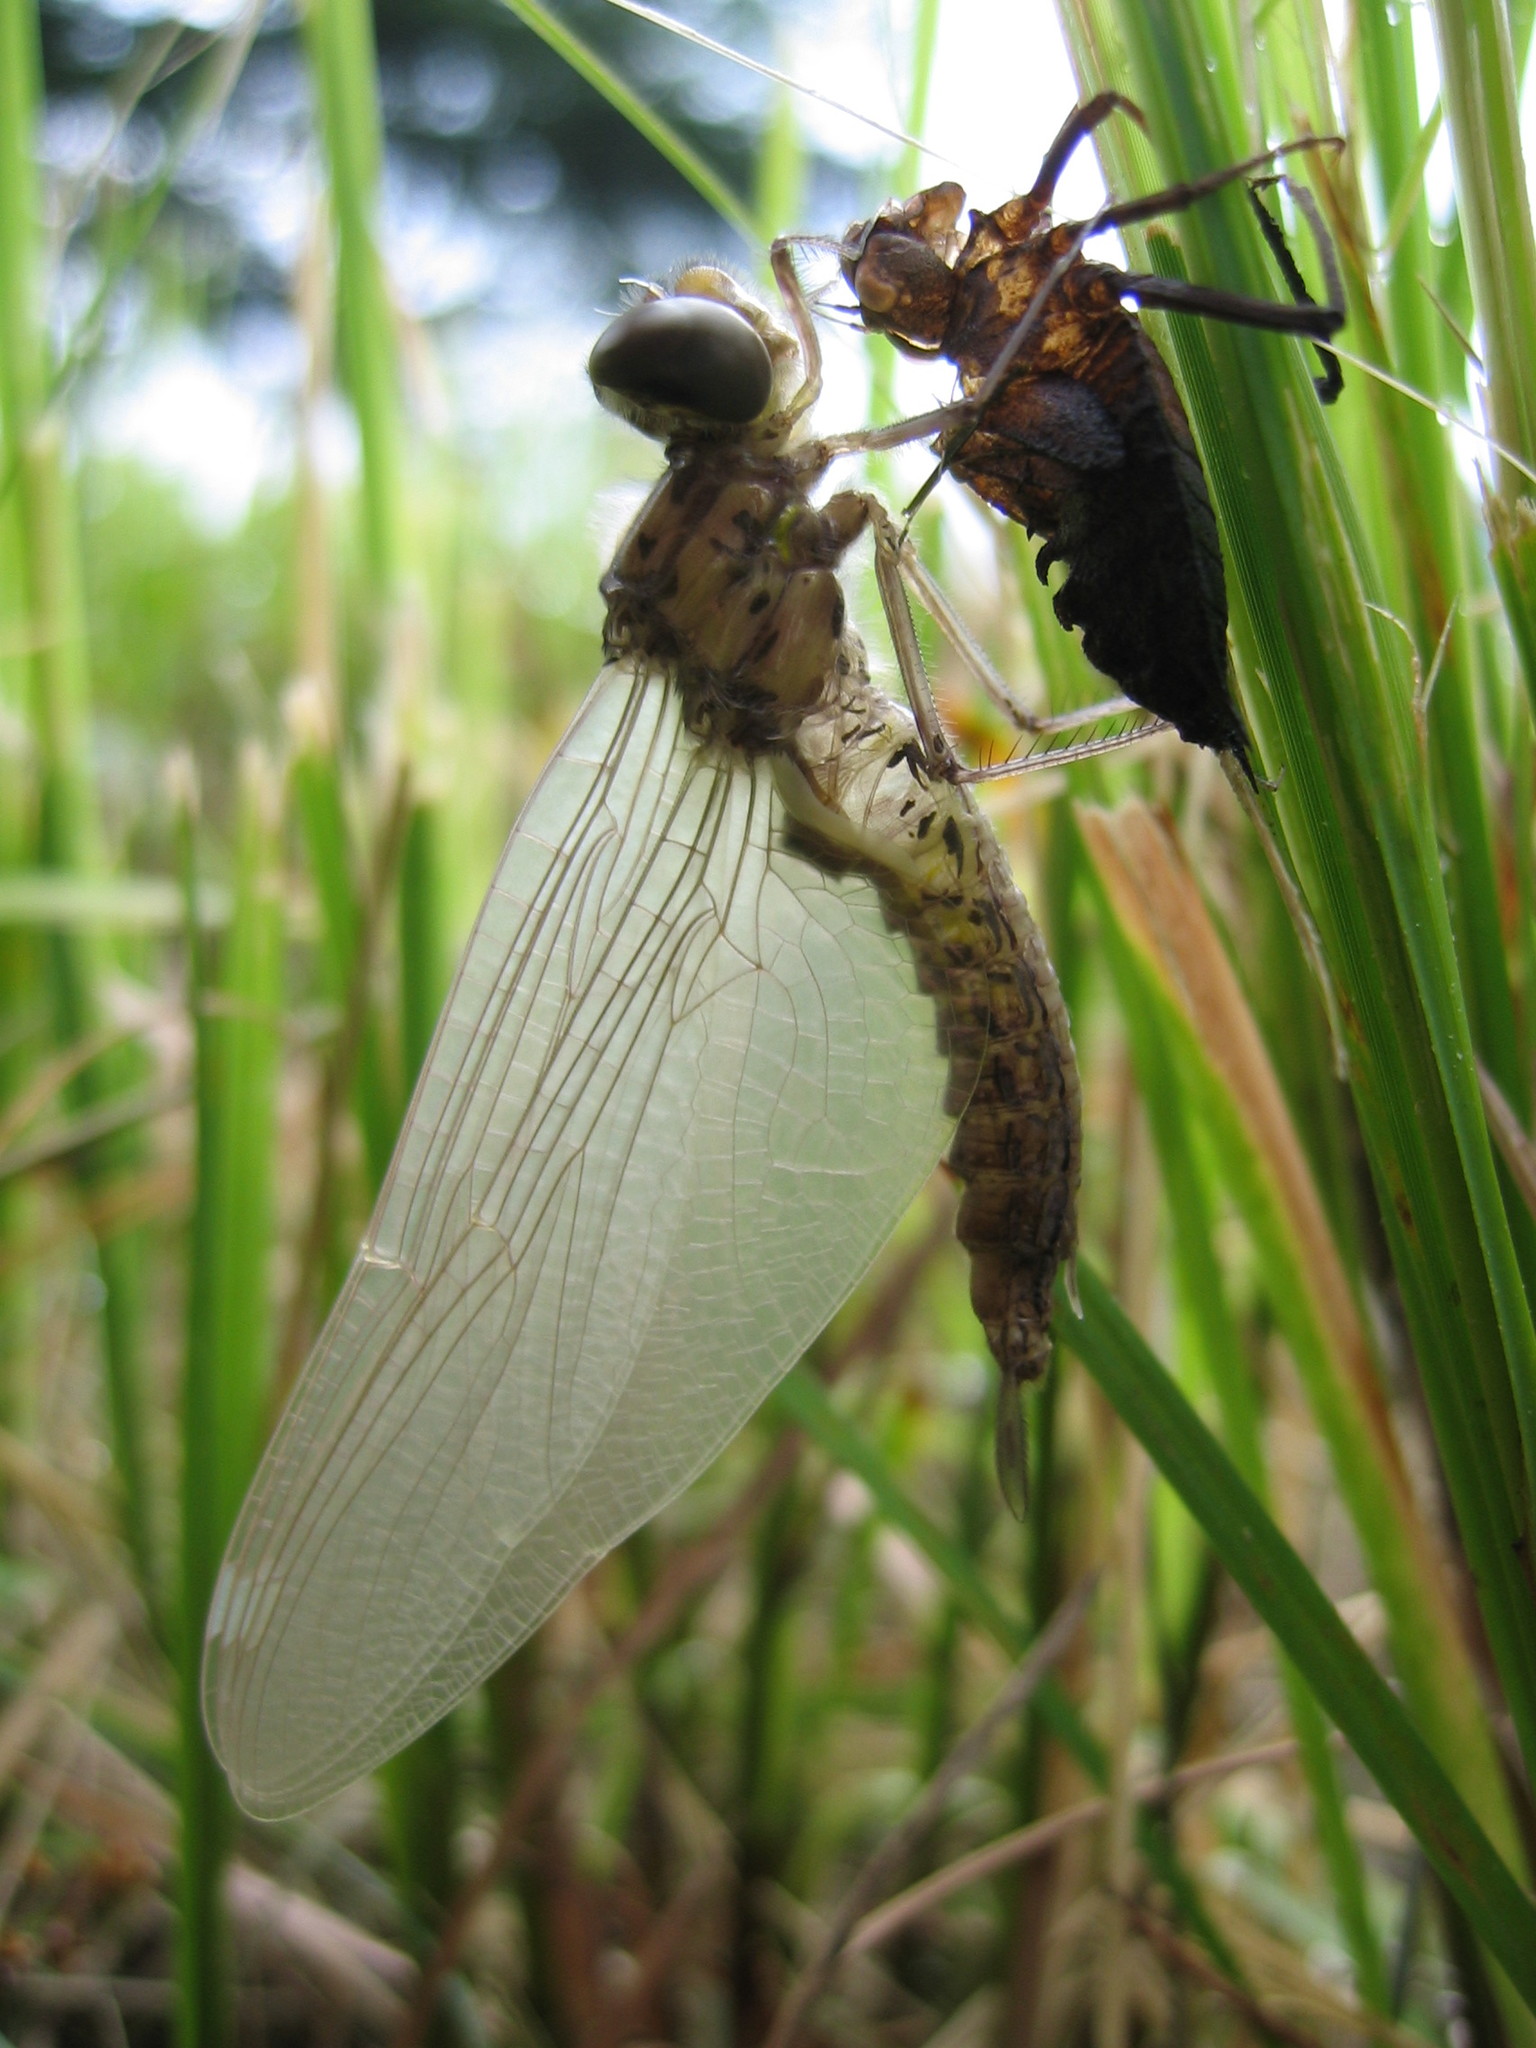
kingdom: Animalia
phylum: Arthropoda
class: Insecta
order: Odonata
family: Corduliidae
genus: Epitheca
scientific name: Epitheca princeps
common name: Prince baskettail
